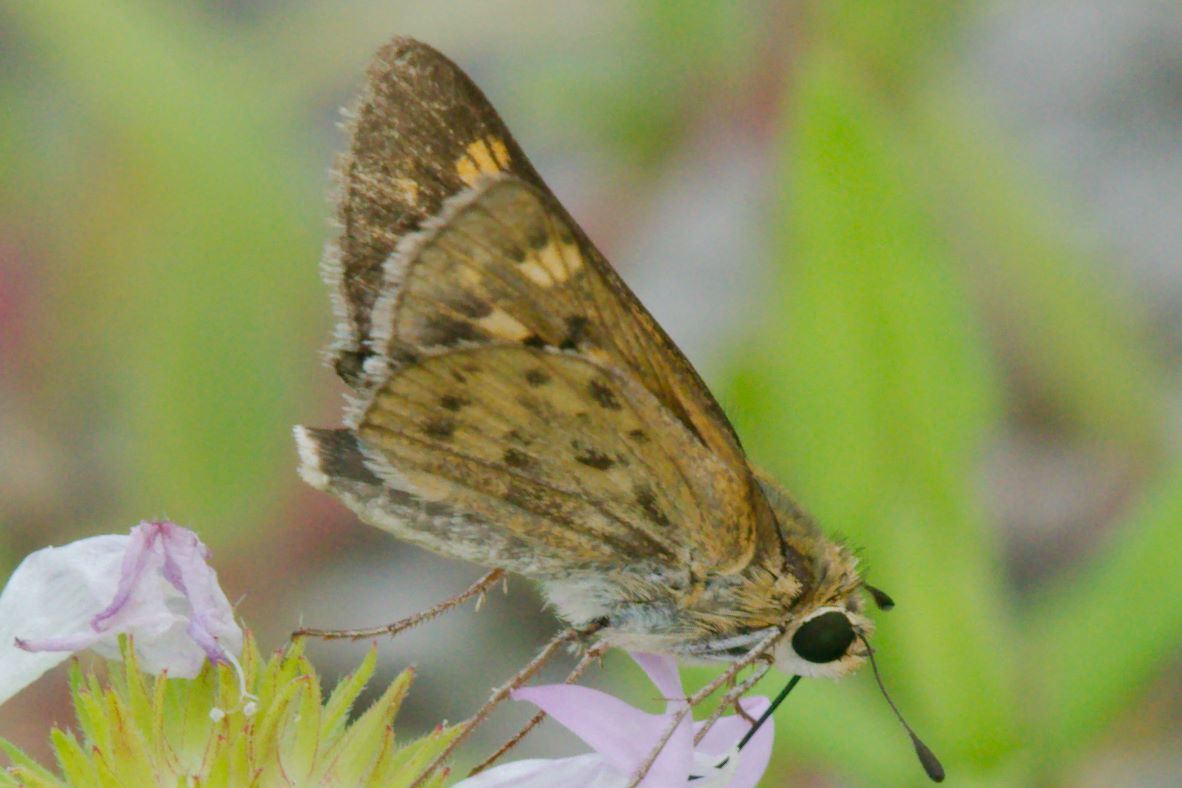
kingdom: Animalia
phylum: Arthropoda
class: Insecta
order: Lepidoptera
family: Hesperiidae
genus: Hylephila
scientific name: Hylephila phyleus
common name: Fiery skipper
